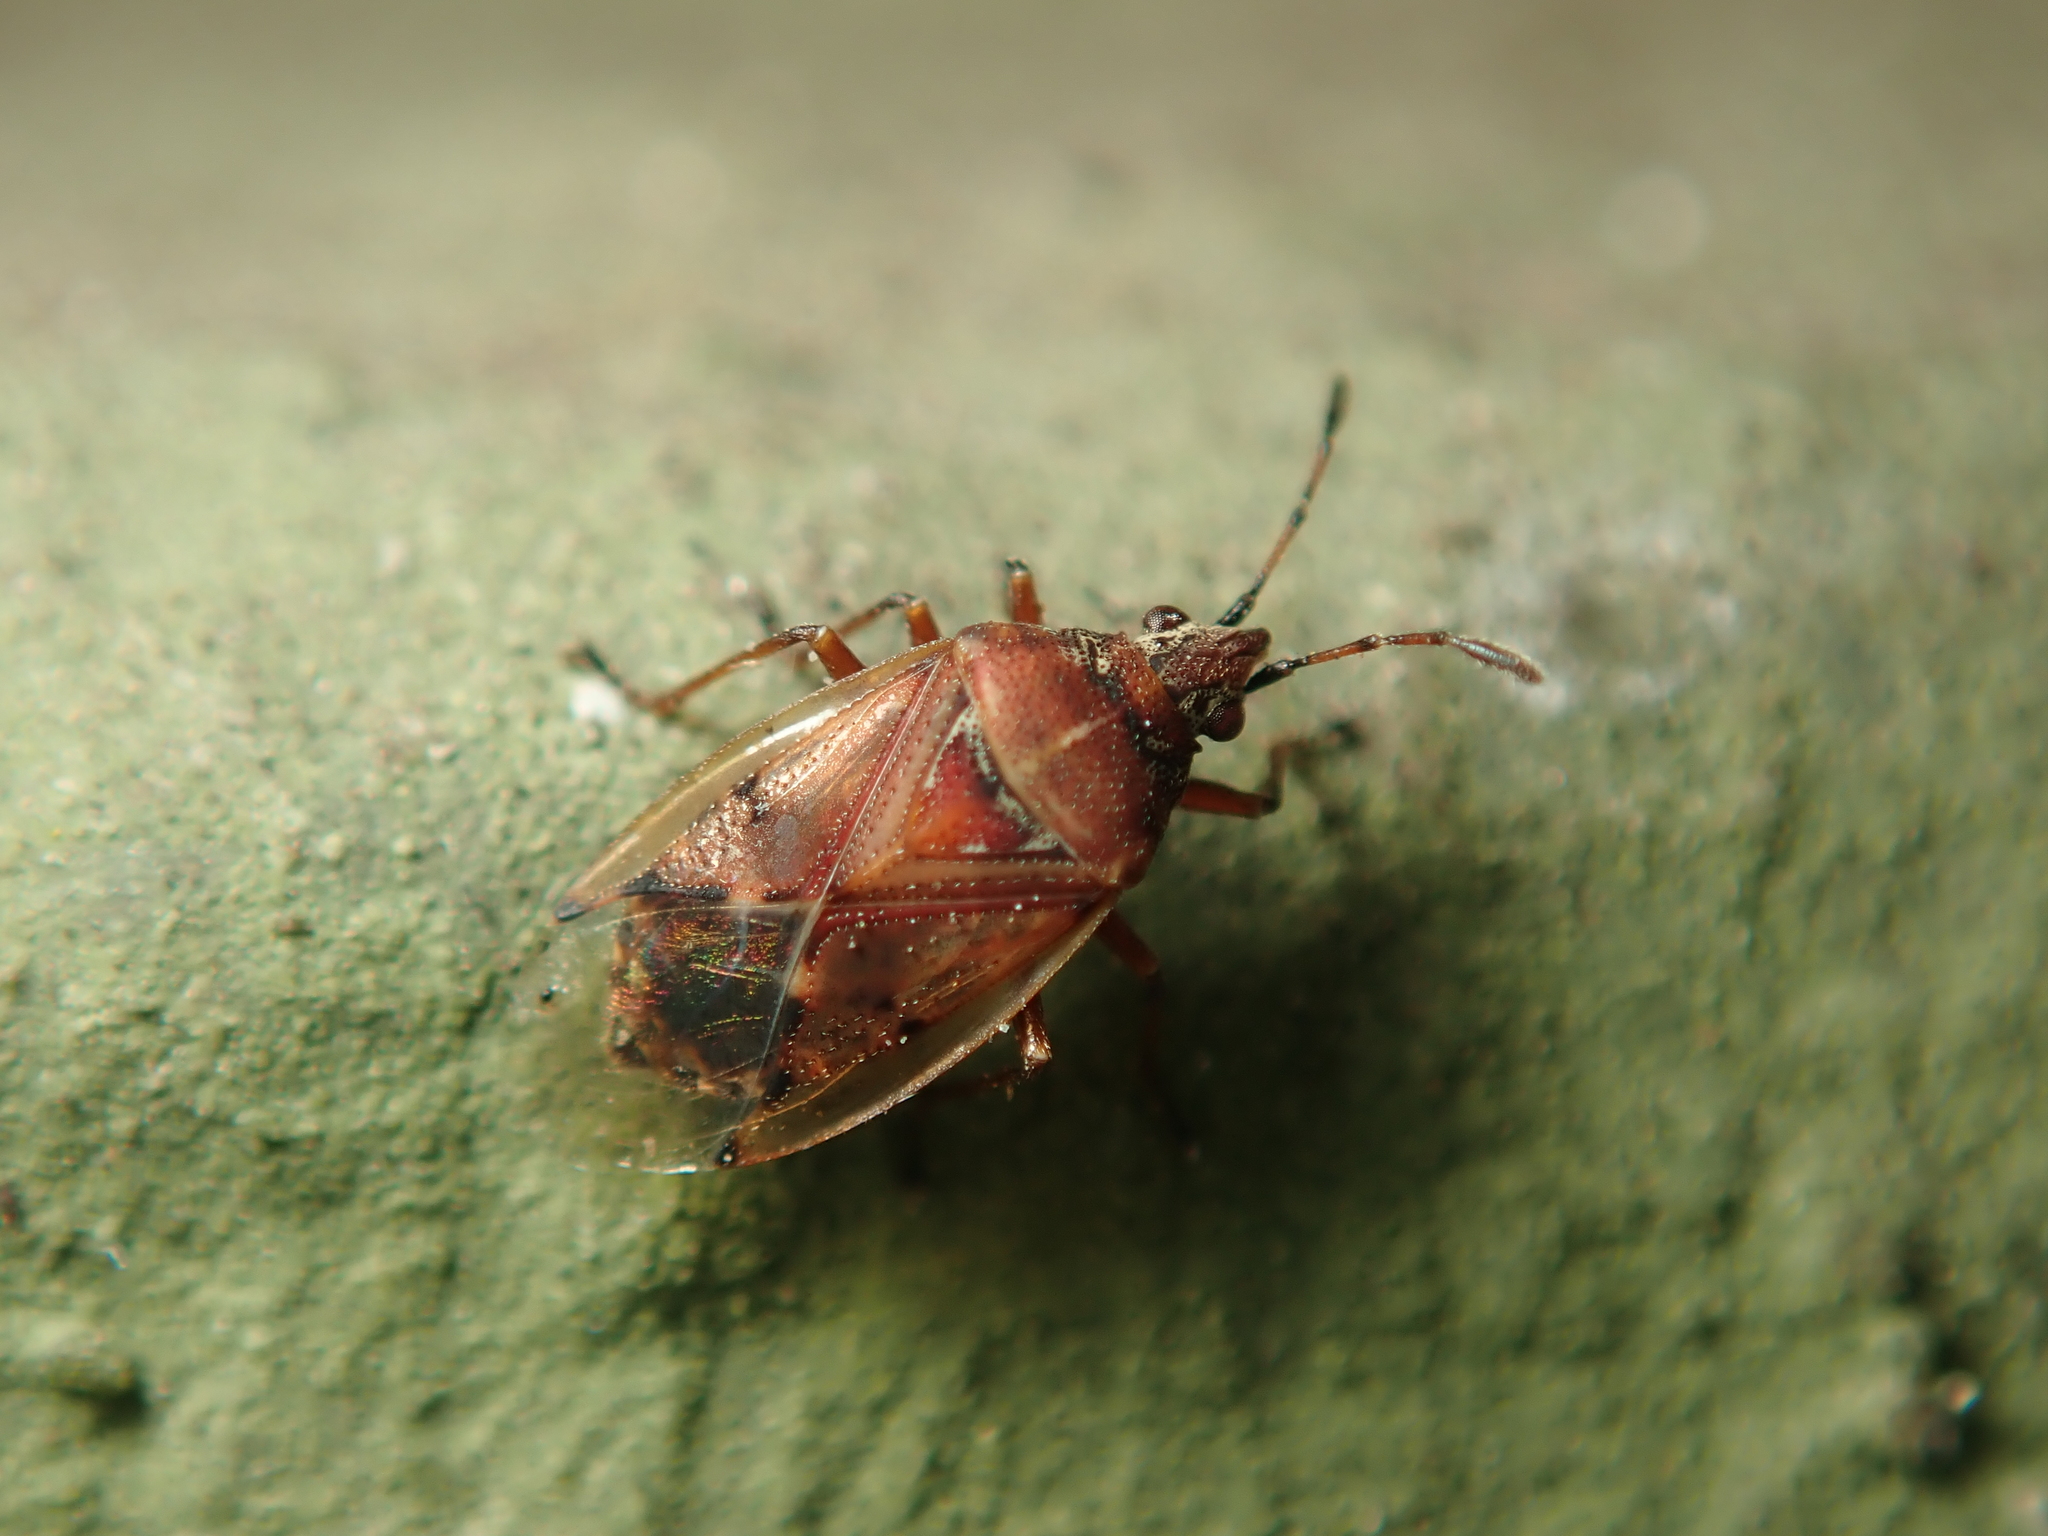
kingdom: Animalia
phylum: Arthropoda
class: Insecta
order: Hemiptera
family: Lygaeidae
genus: Kleidocerys
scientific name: Kleidocerys resedae
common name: Birch catkin bug
